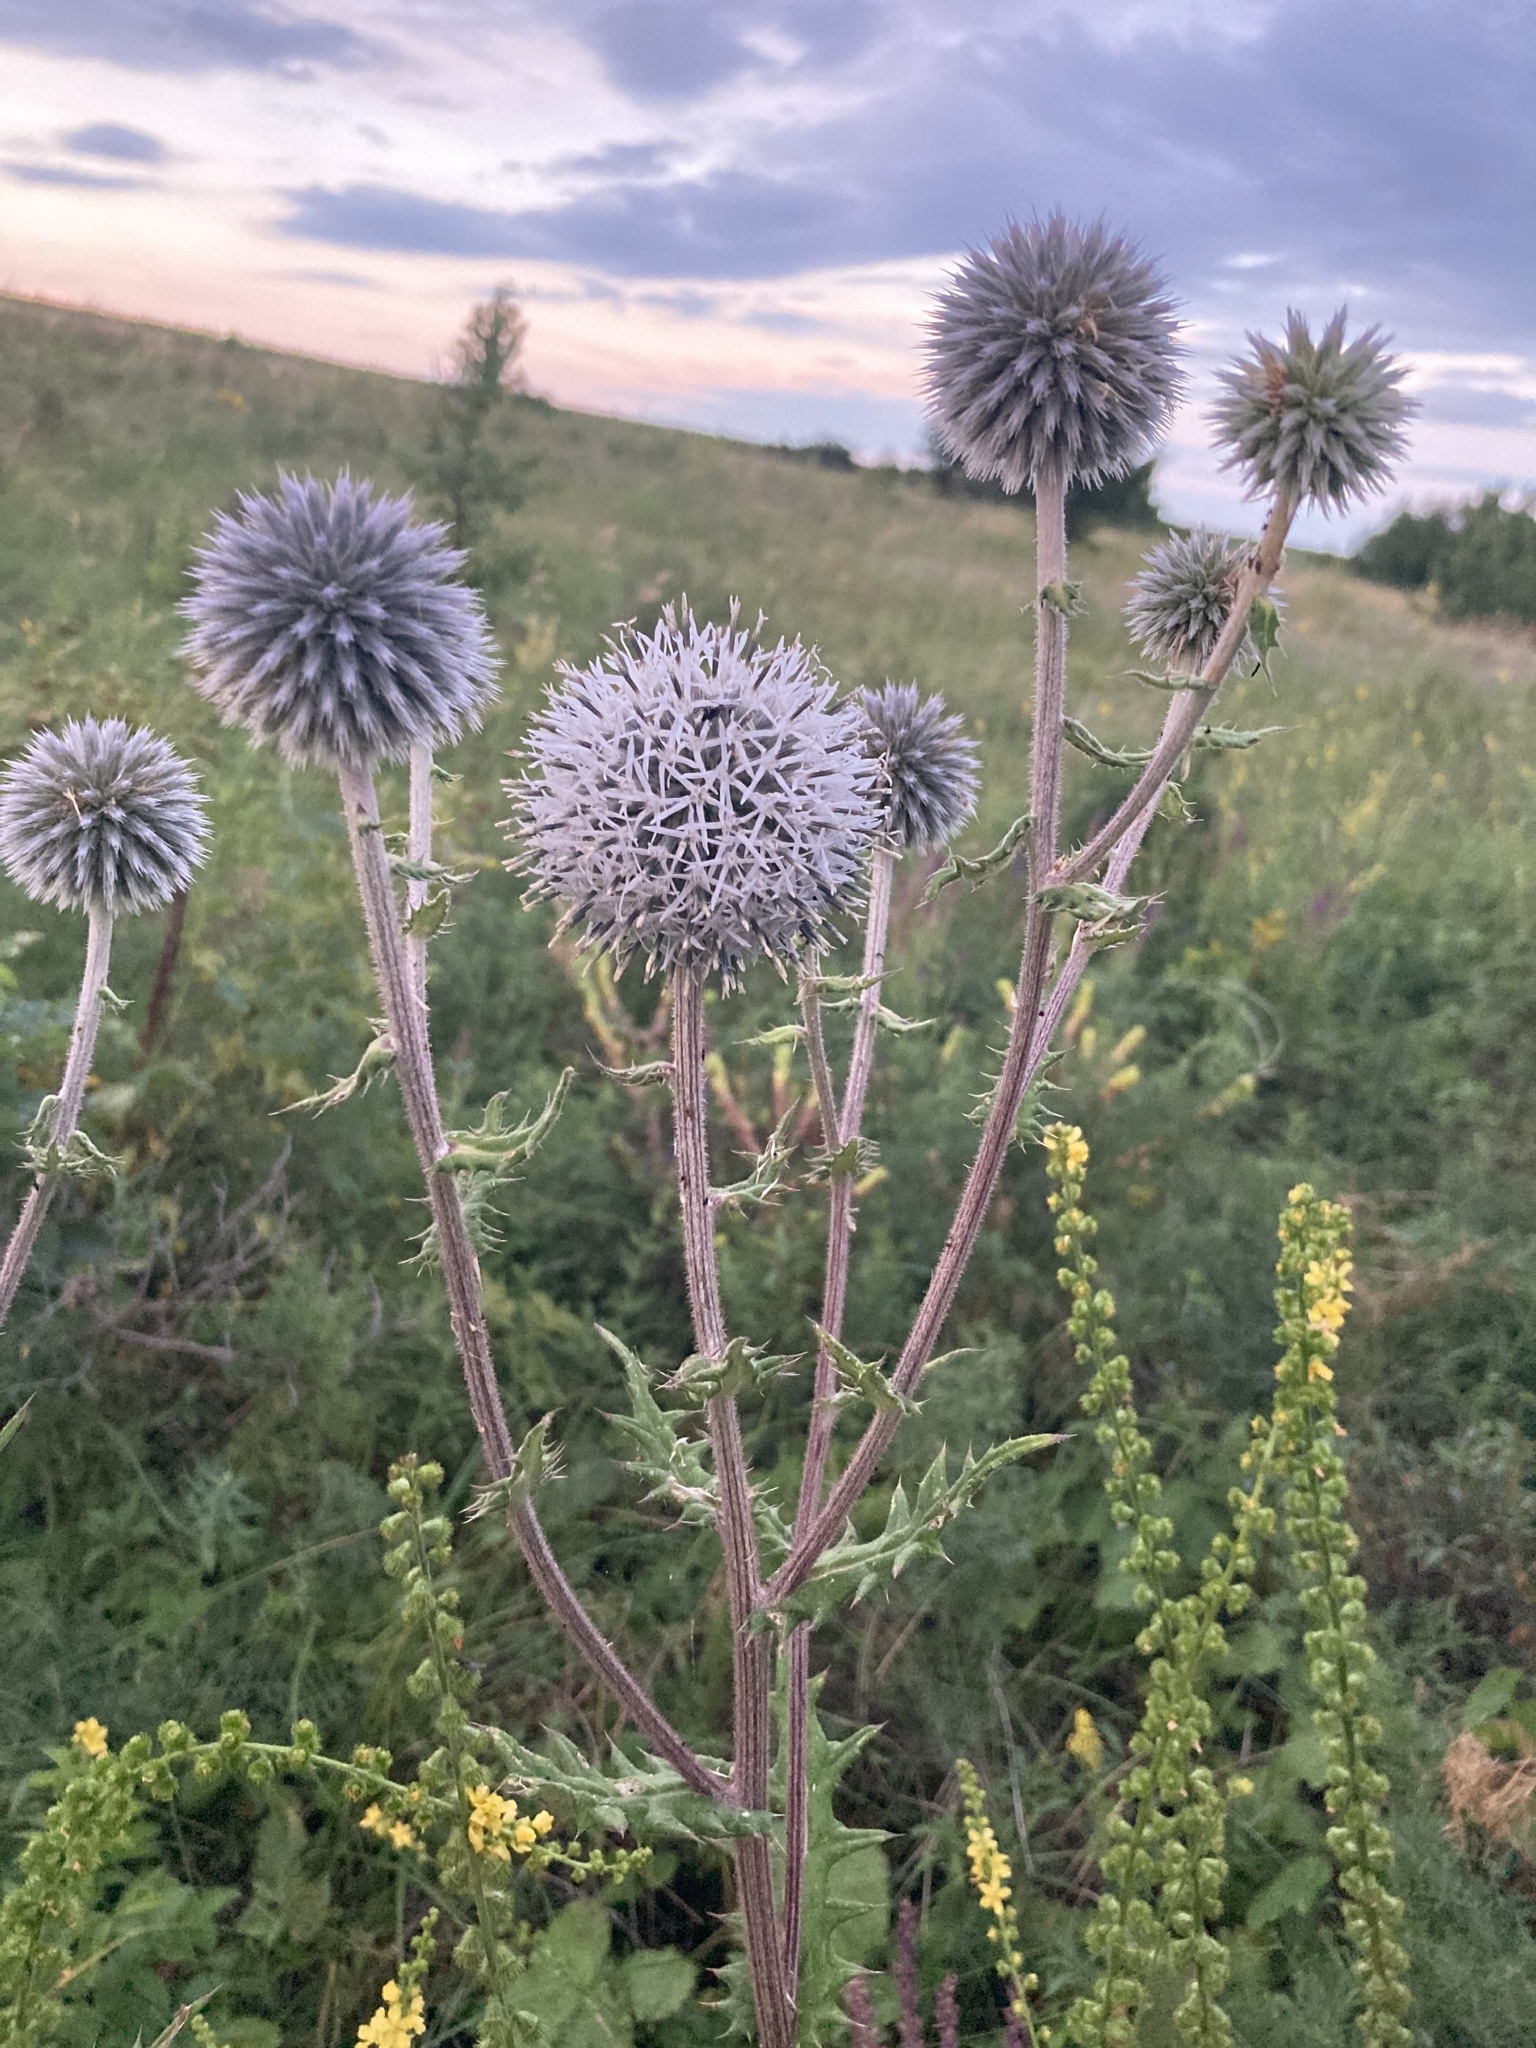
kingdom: Plantae
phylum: Tracheophyta
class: Magnoliopsida
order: Asterales
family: Asteraceae
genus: Echinops
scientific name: Echinops sphaerocephalus
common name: Glandular globe-thistle
